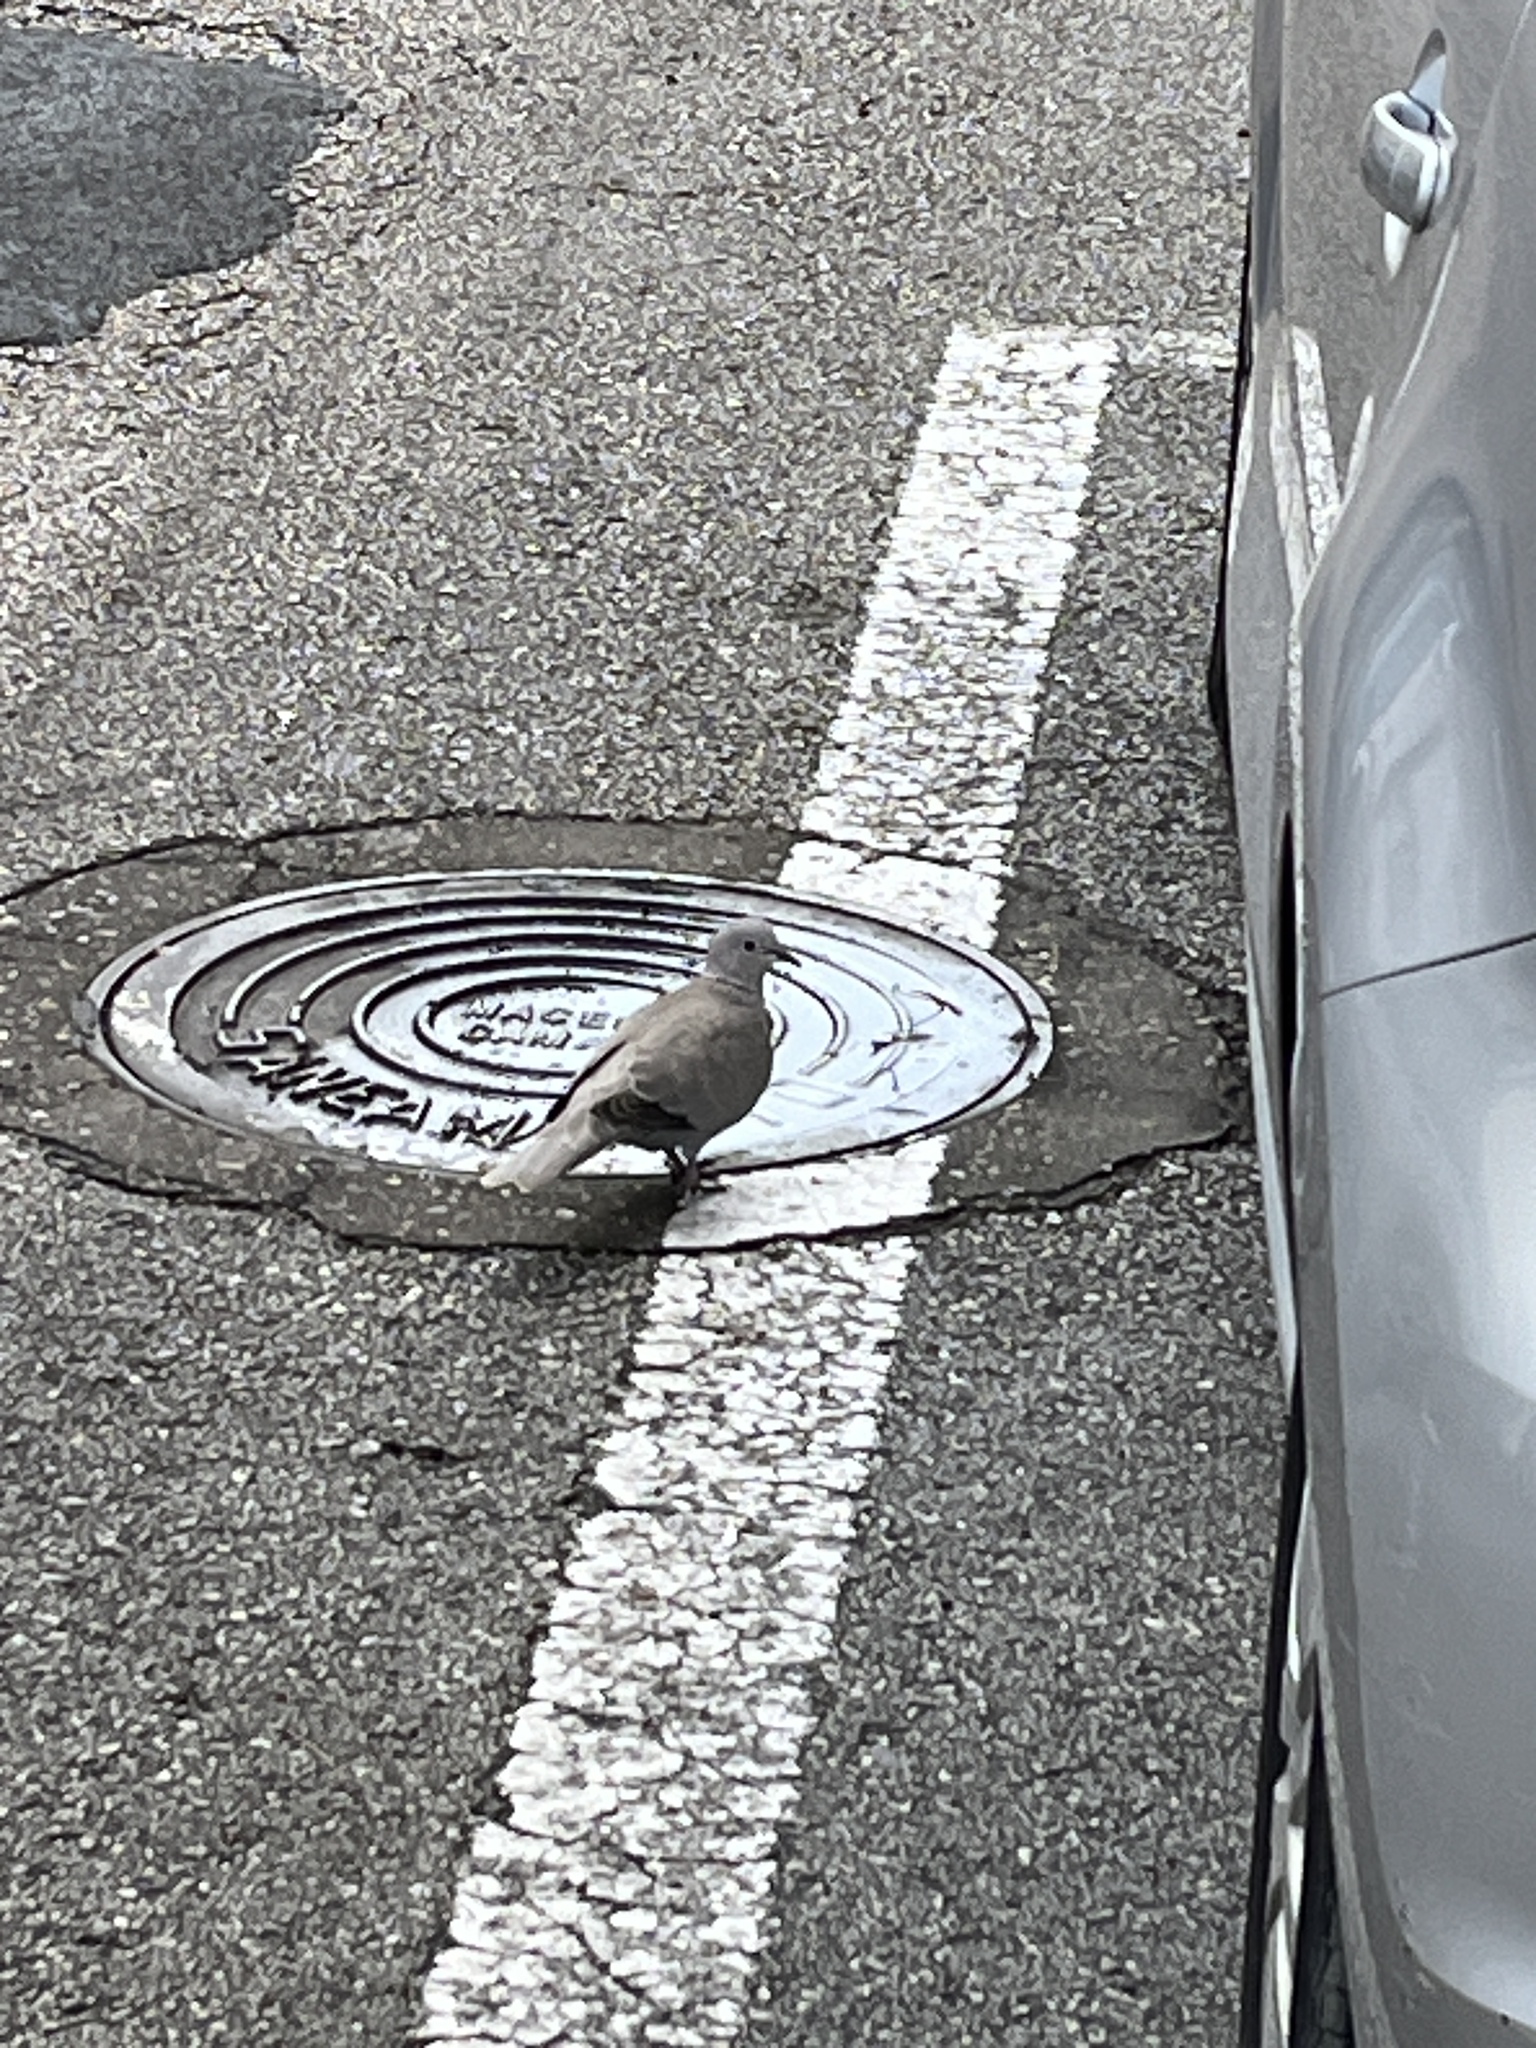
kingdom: Animalia
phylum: Chordata
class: Aves
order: Columbiformes
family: Columbidae
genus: Streptopelia
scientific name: Streptopelia decaocto
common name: Eurasian collared dove
